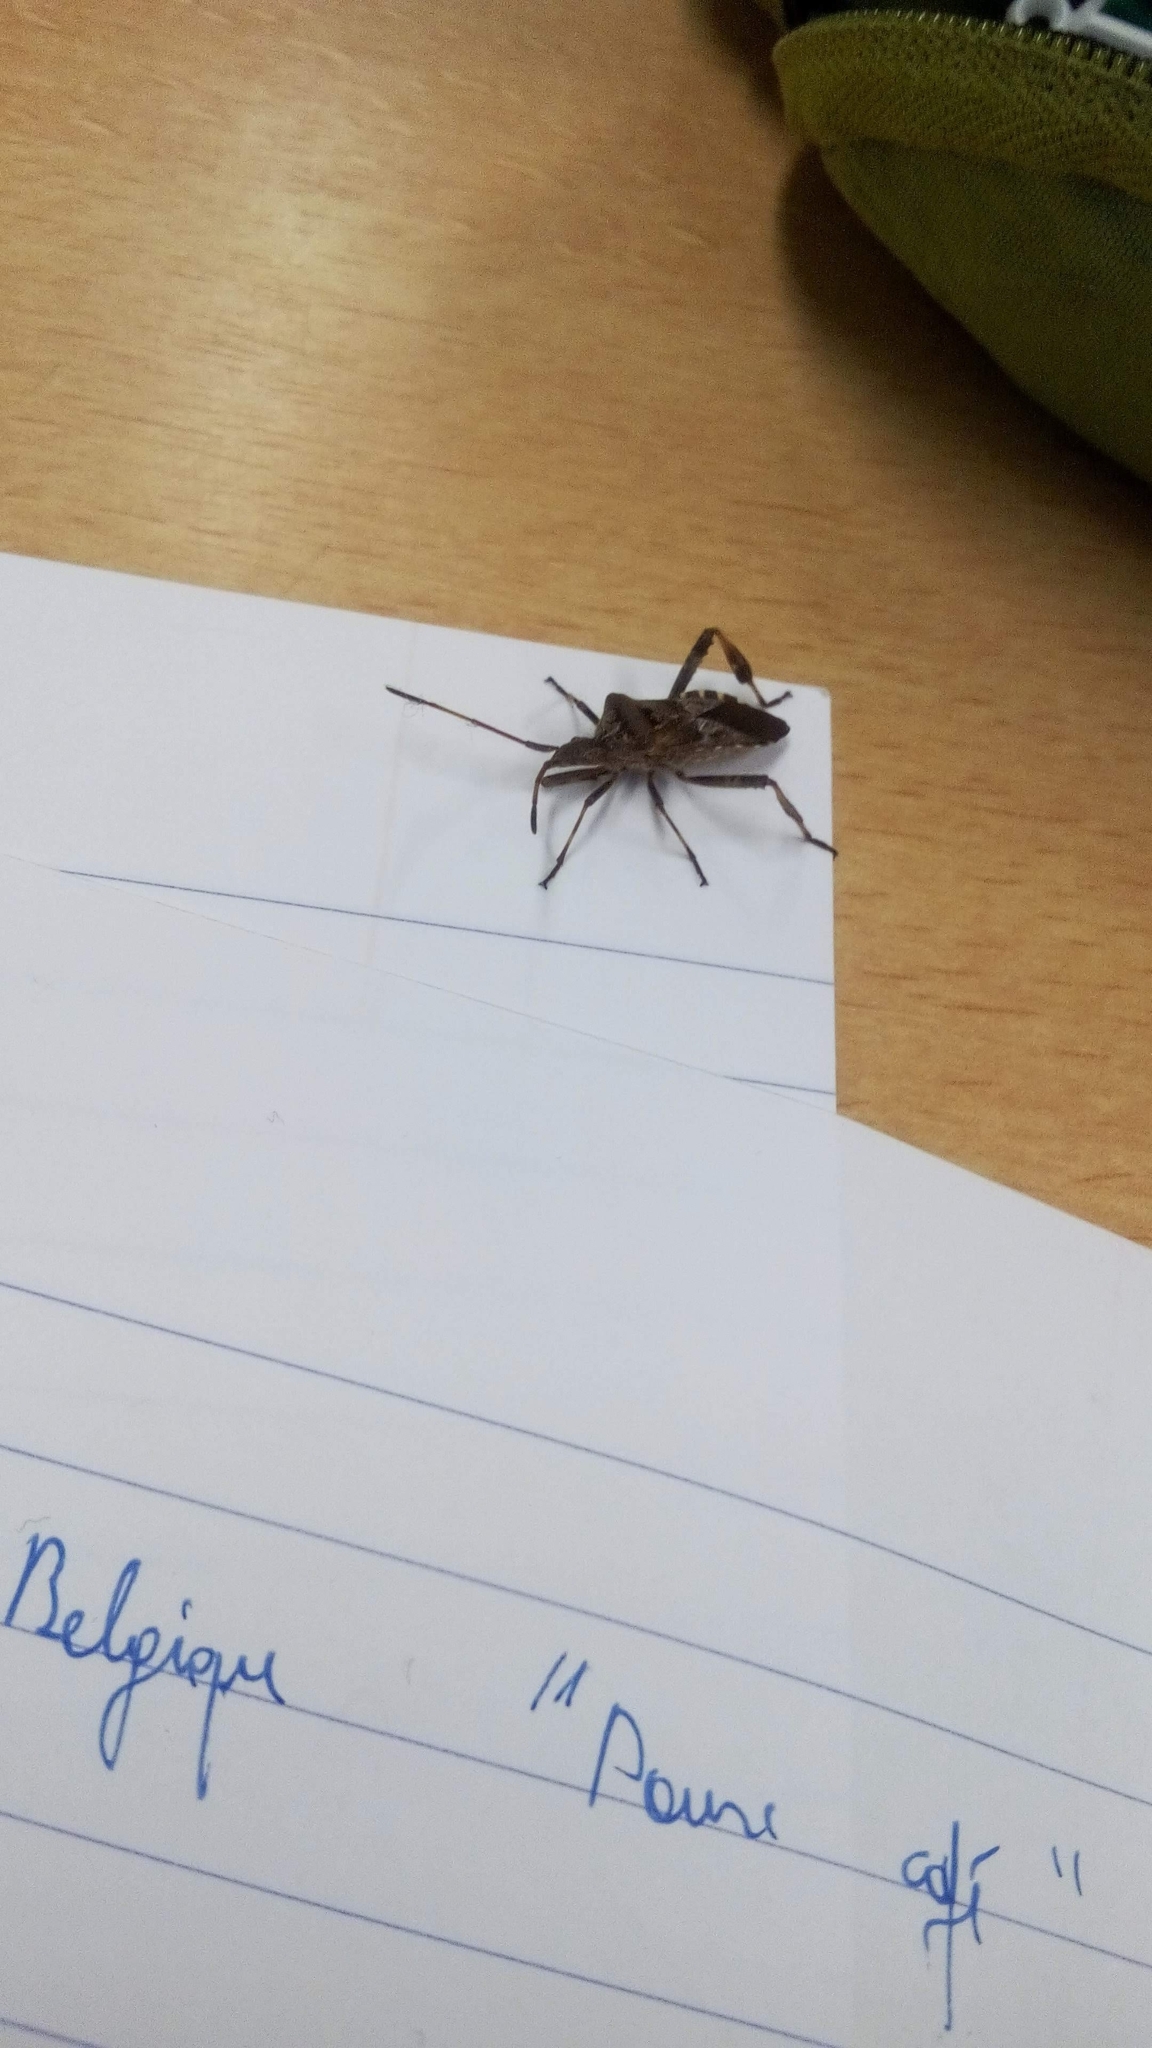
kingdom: Animalia
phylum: Arthropoda
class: Insecta
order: Hemiptera
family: Coreidae
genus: Leptoglossus
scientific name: Leptoglossus occidentalis
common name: Western conifer-seed bug
